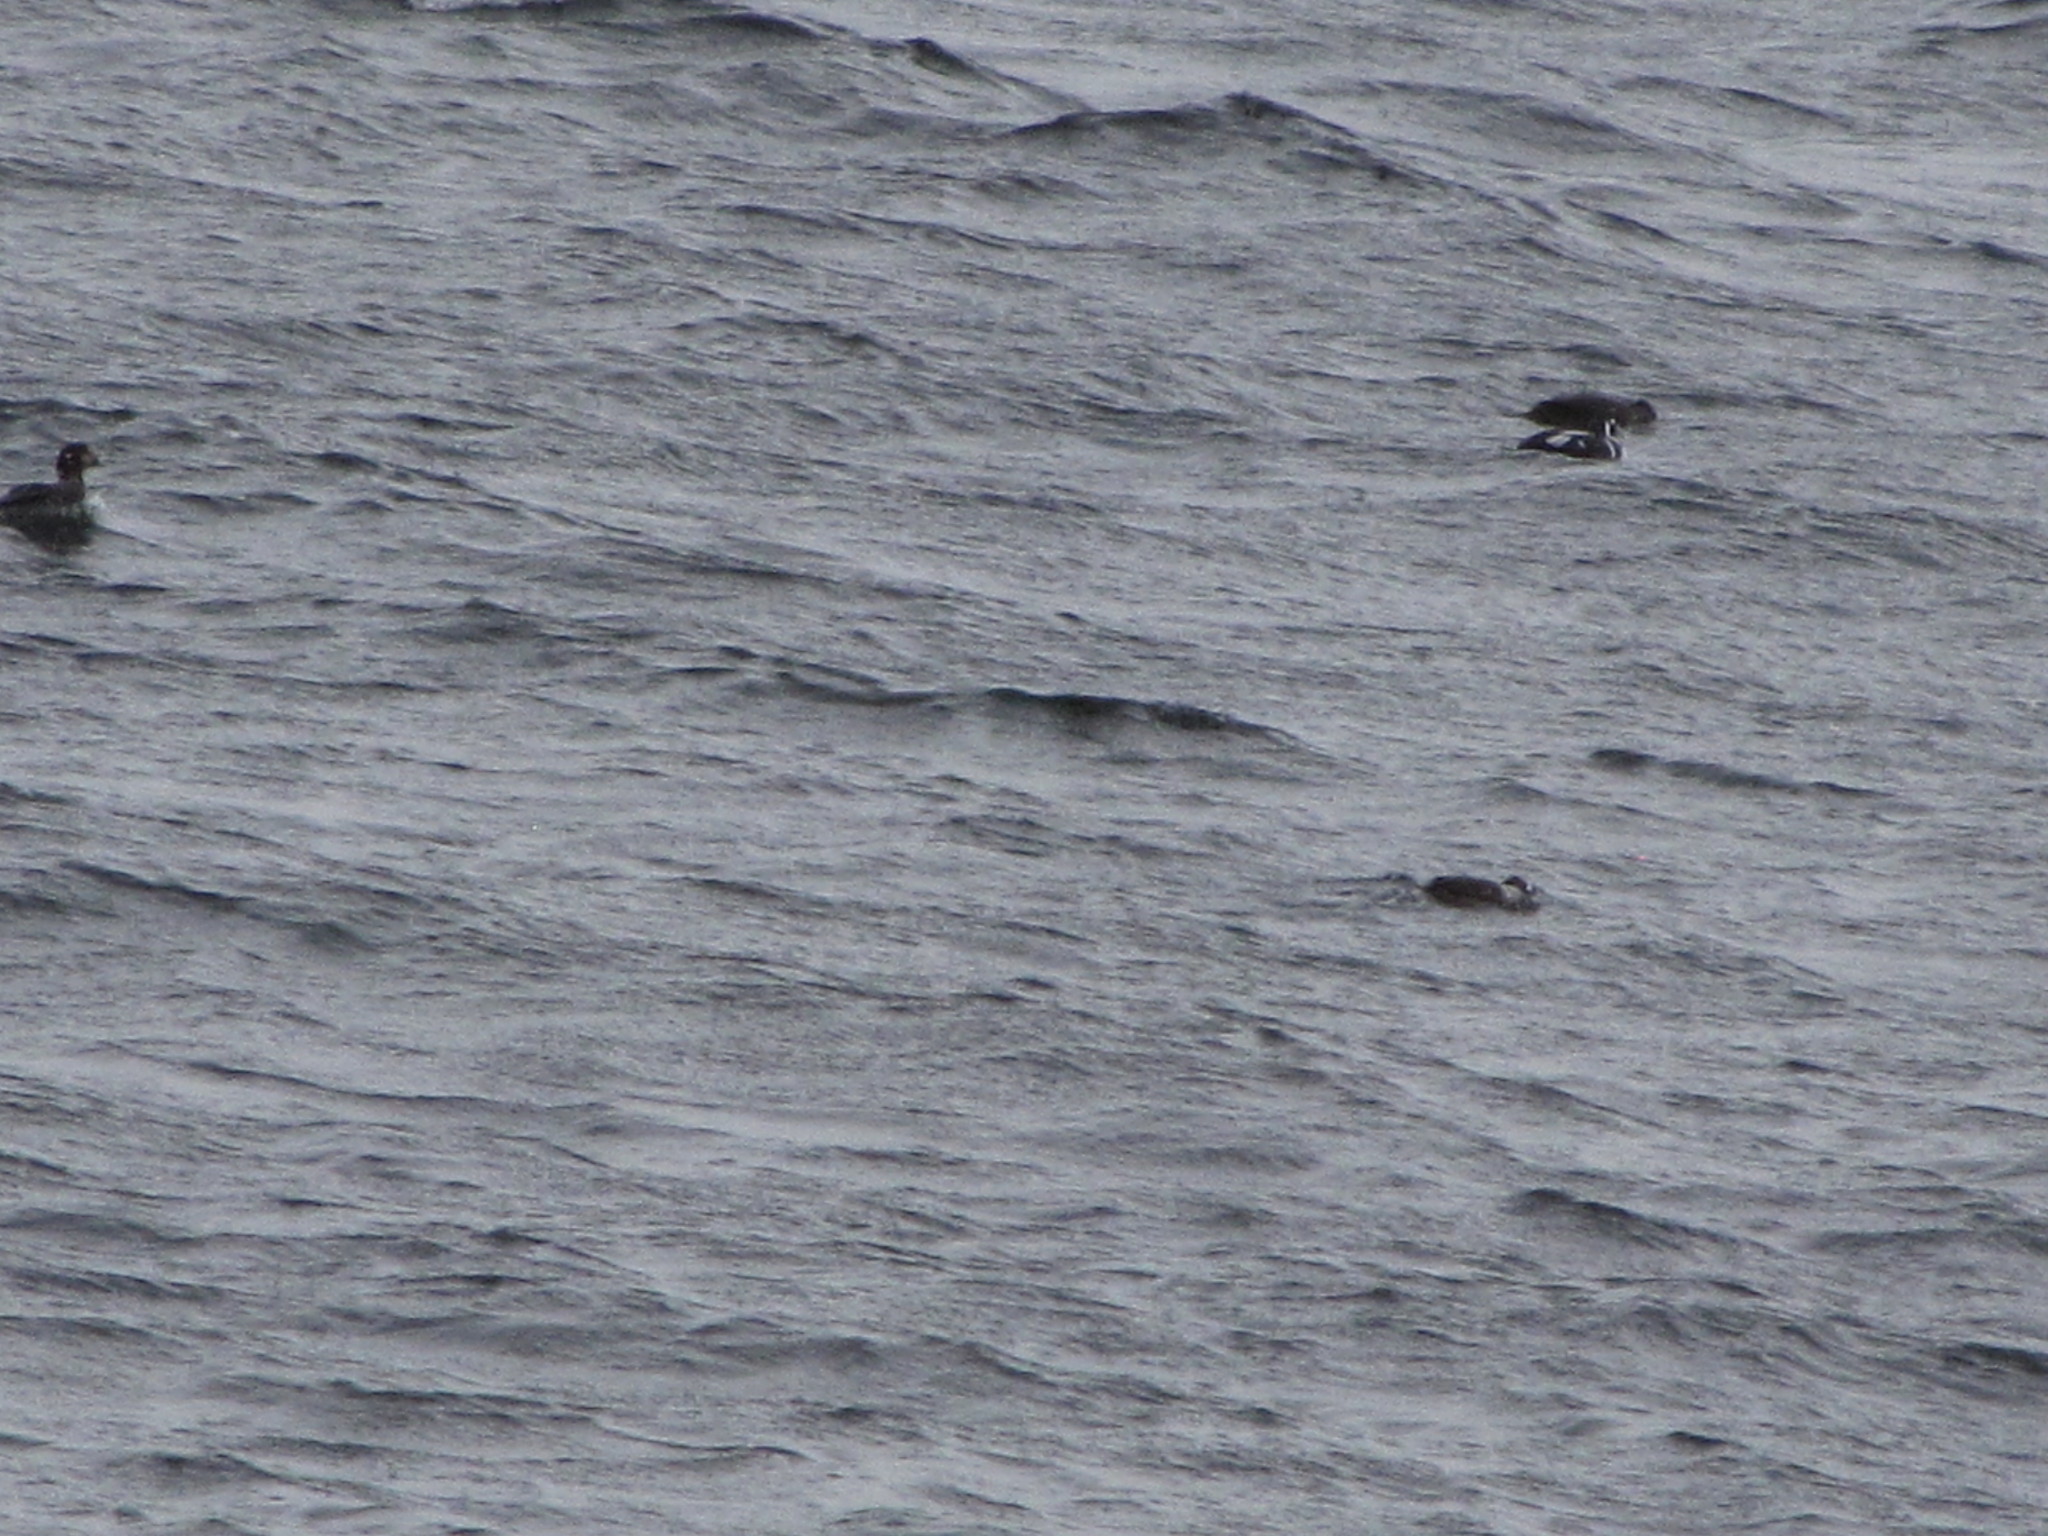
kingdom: Animalia
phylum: Chordata
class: Aves
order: Anseriformes
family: Anatidae
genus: Histrionicus
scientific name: Histrionicus histrionicus
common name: Harlequin duck
